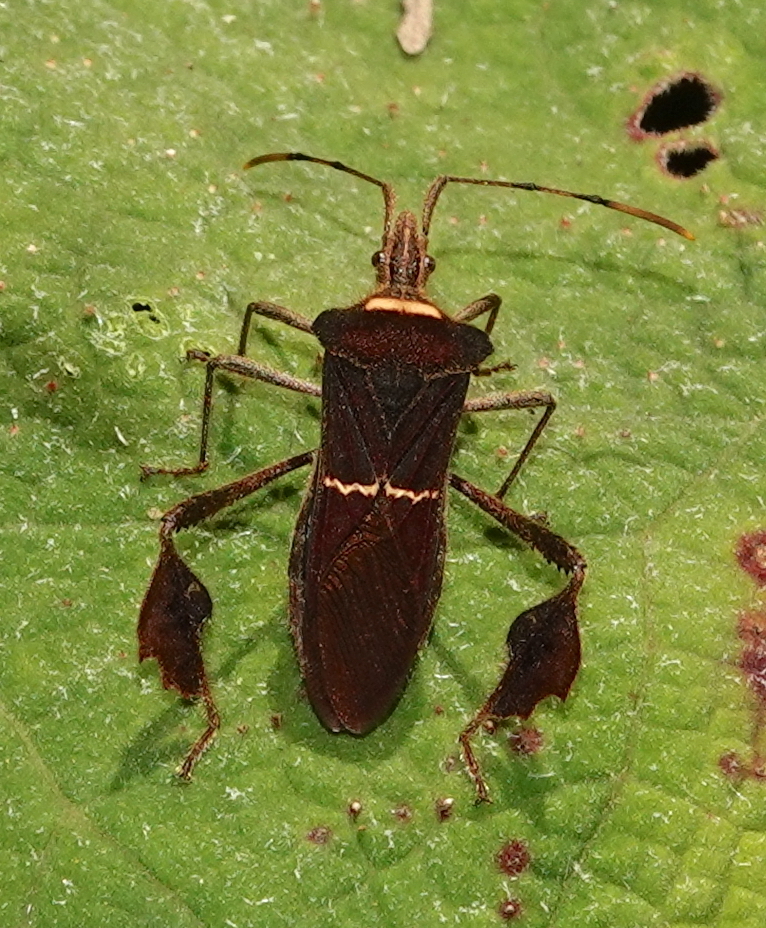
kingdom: Animalia
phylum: Arthropoda
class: Insecta
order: Hemiptera
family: Coreidae
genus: Leptoglossus
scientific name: Leptoglossus macrophyllus
